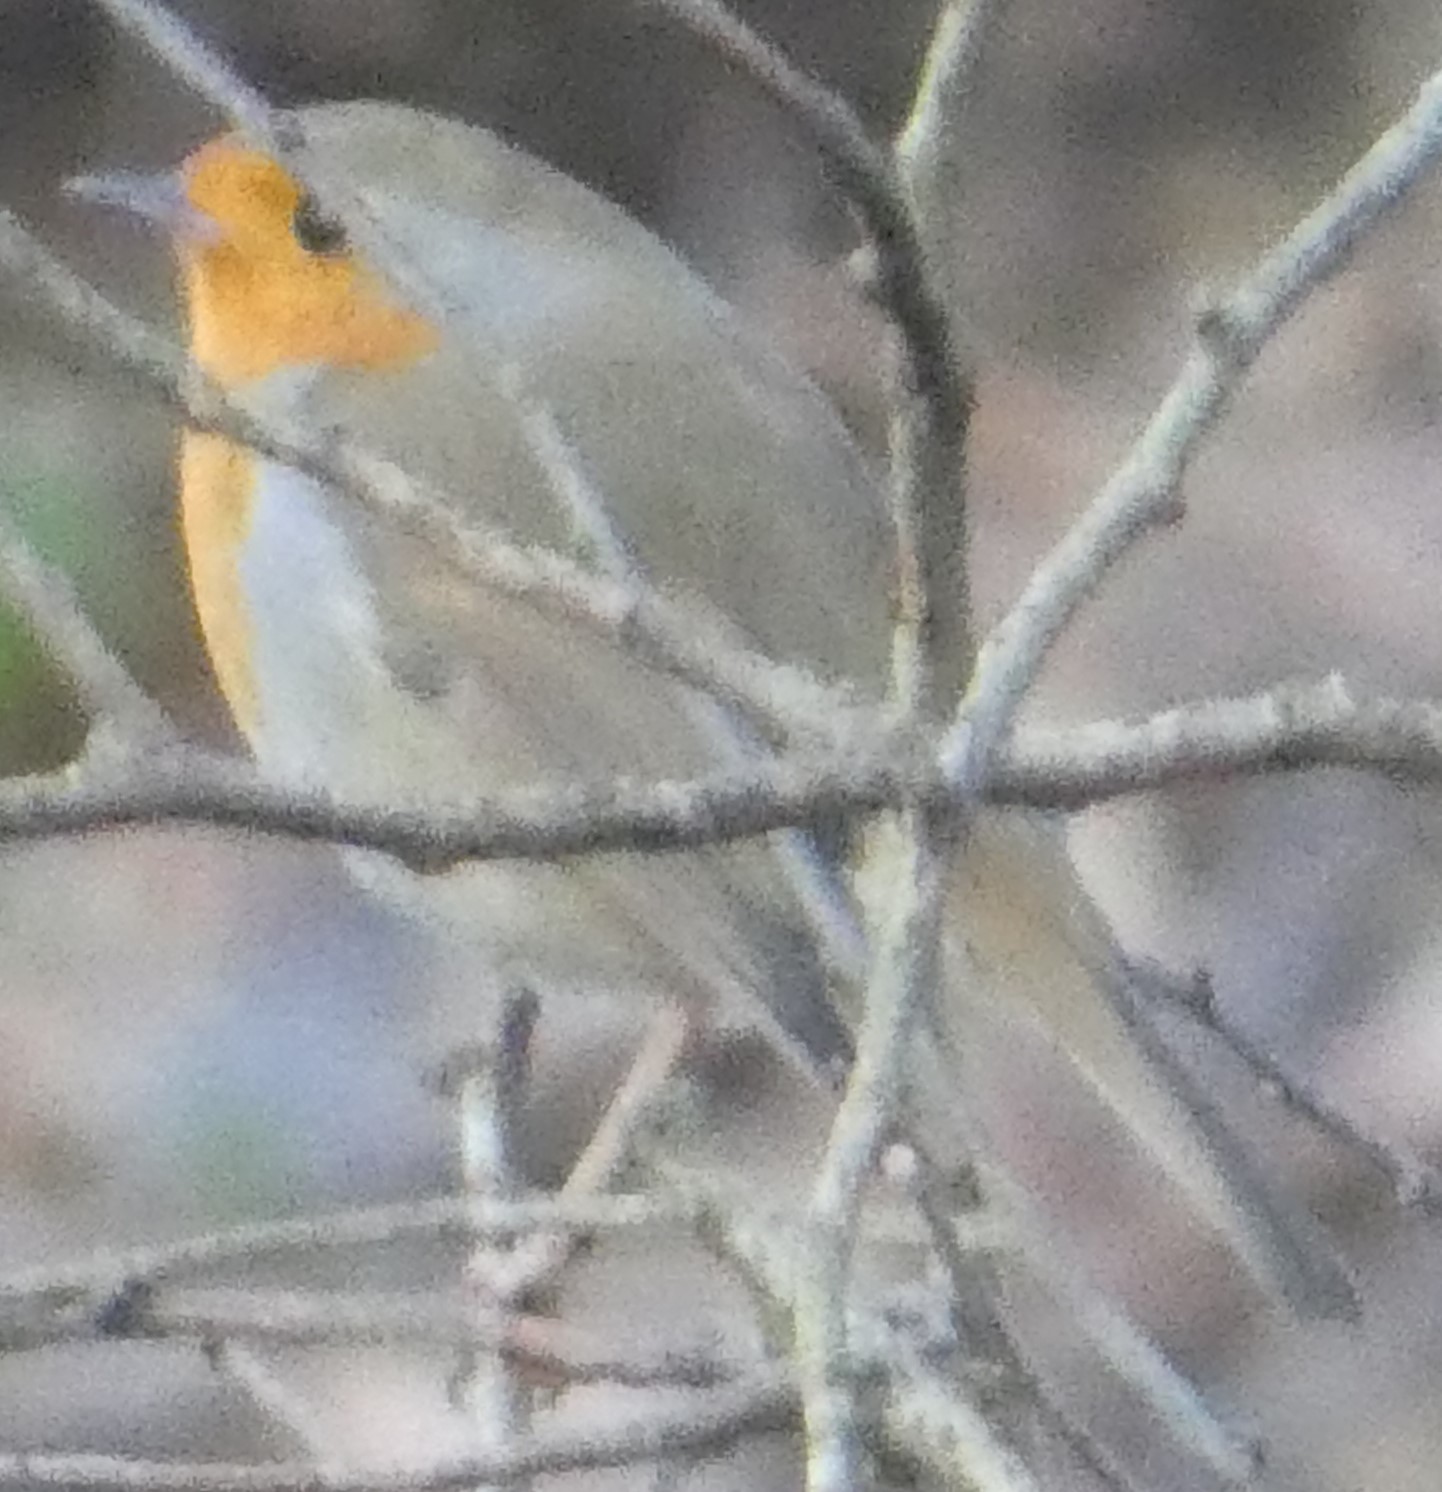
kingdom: Animalia
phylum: Chordata
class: Aves
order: Passeriformes
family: Muscicapidae
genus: Erithacus
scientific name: Erithacus rubecula
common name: European robin
